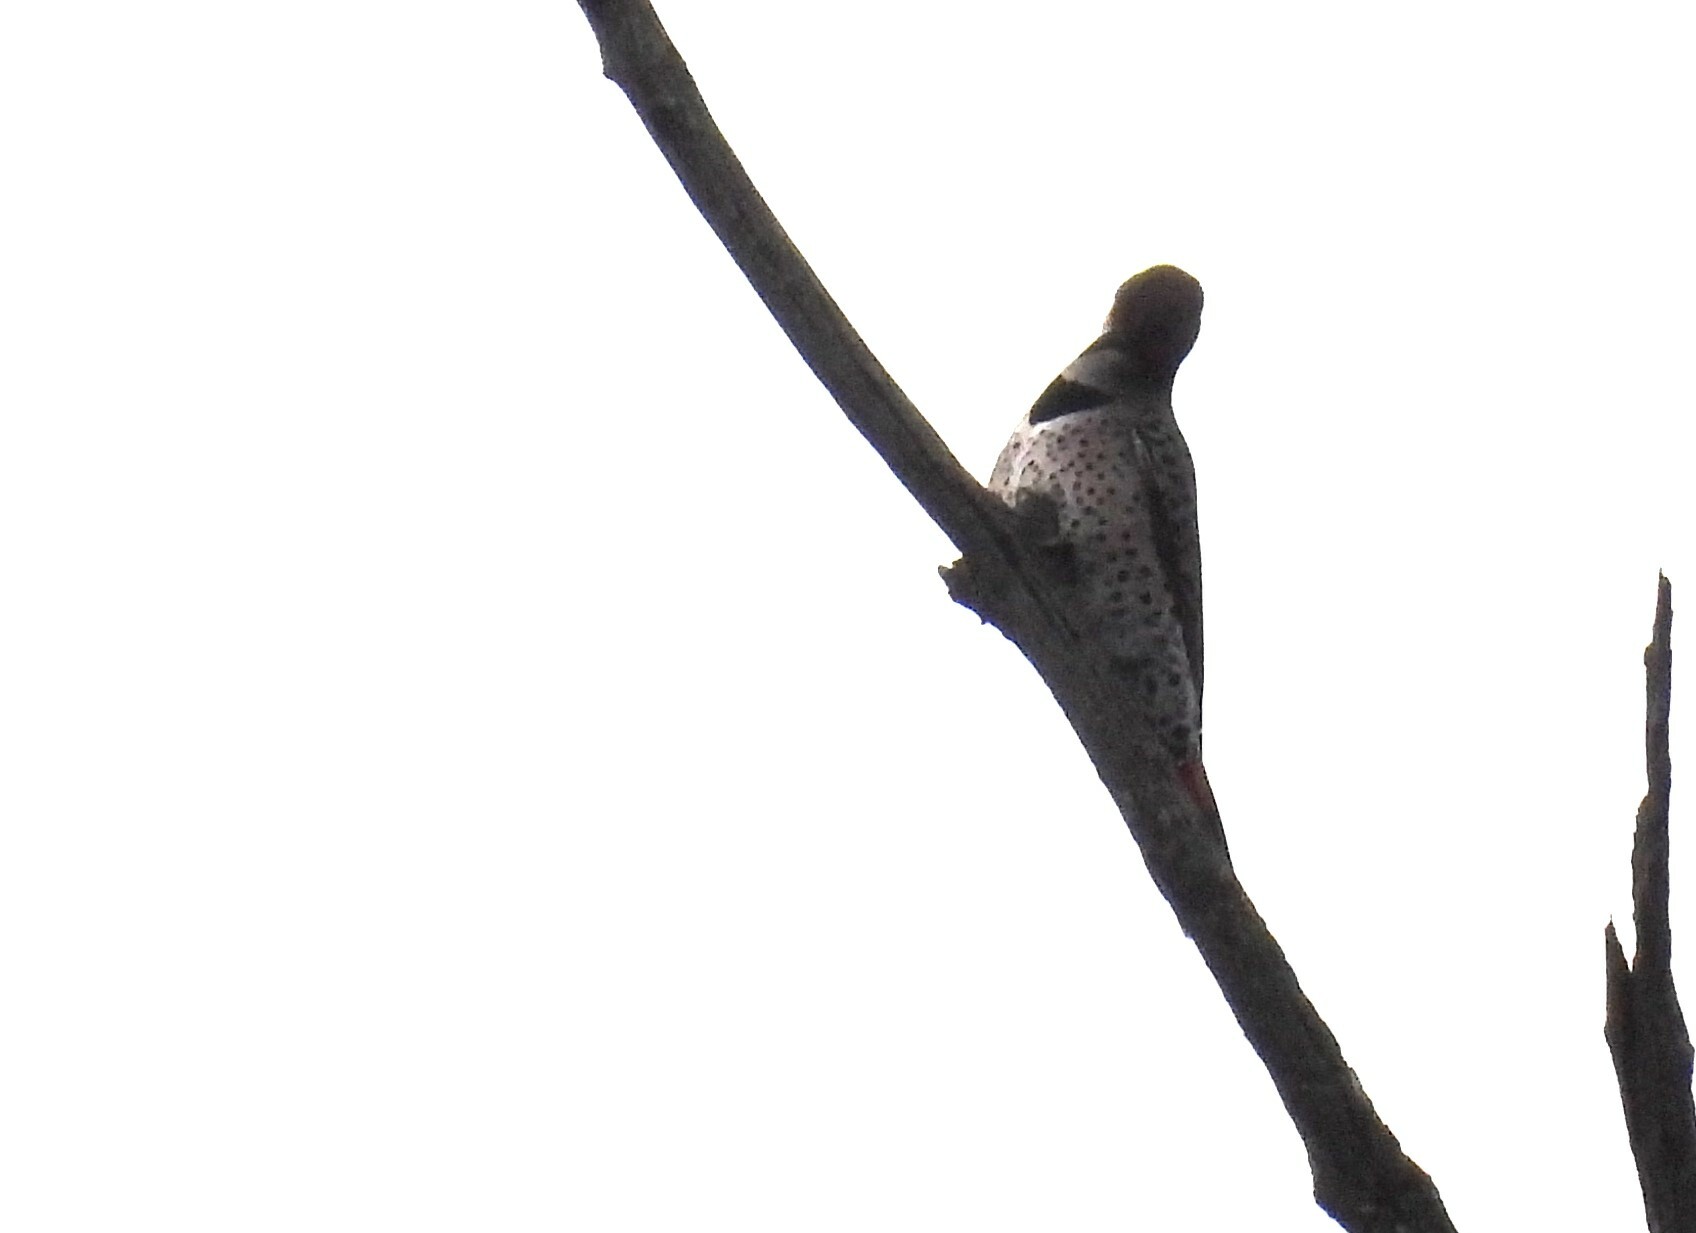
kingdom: Animalia
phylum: Chordata
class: Aves
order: Piciformes
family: Picidae
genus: Colaptes
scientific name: Colaptes auratus
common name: Northern flicker
